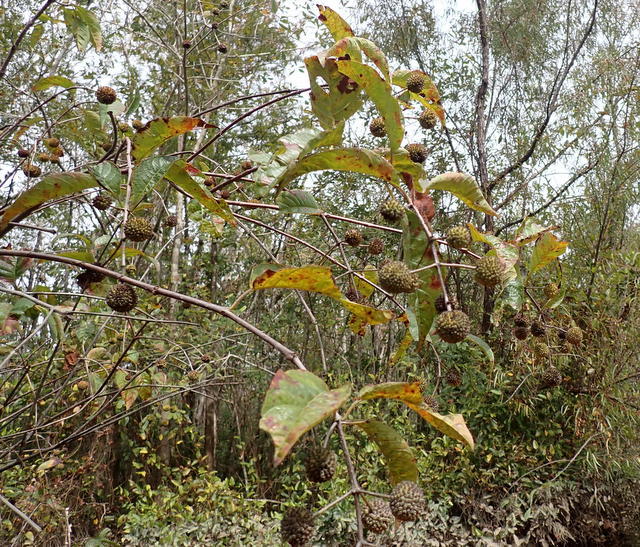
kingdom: Plantae
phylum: Tracheophyta
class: Magnoliopsida
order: Gentianales
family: Rubiaceae
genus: Cephalanthus
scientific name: Cephalanthus occidentalis
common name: Button-willow
